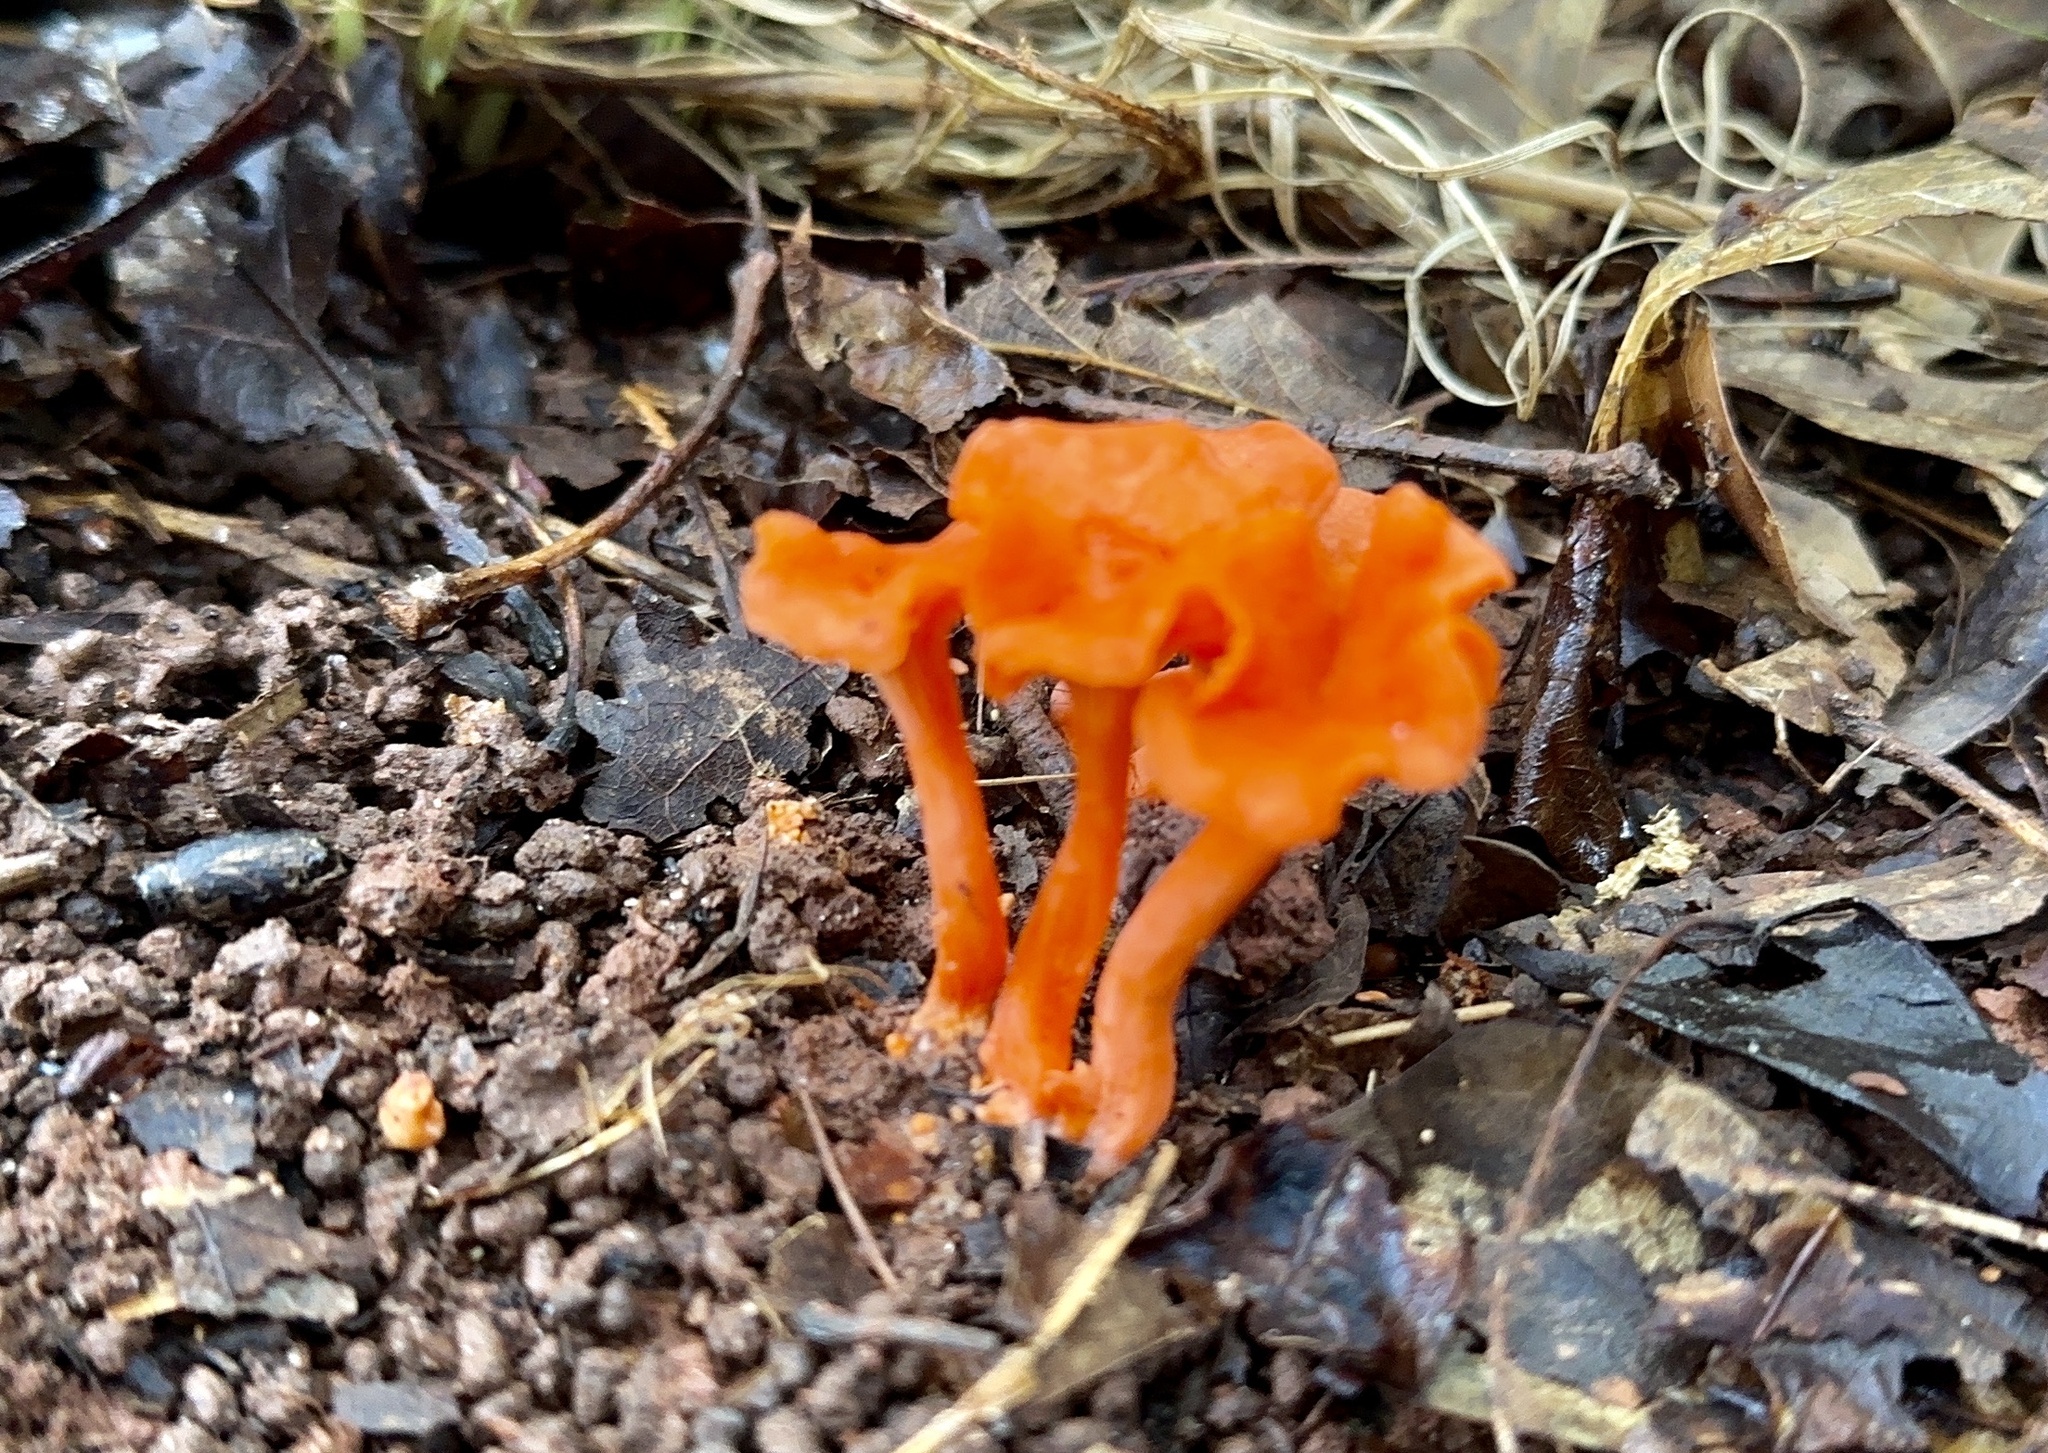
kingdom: Fungi
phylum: Basidiomycota
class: Agaricomycetes
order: Cantharellales
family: Hydnaceae
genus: Cantharellus
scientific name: Cantharellus cinnabarinus
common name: Cinnabar chanterelle
